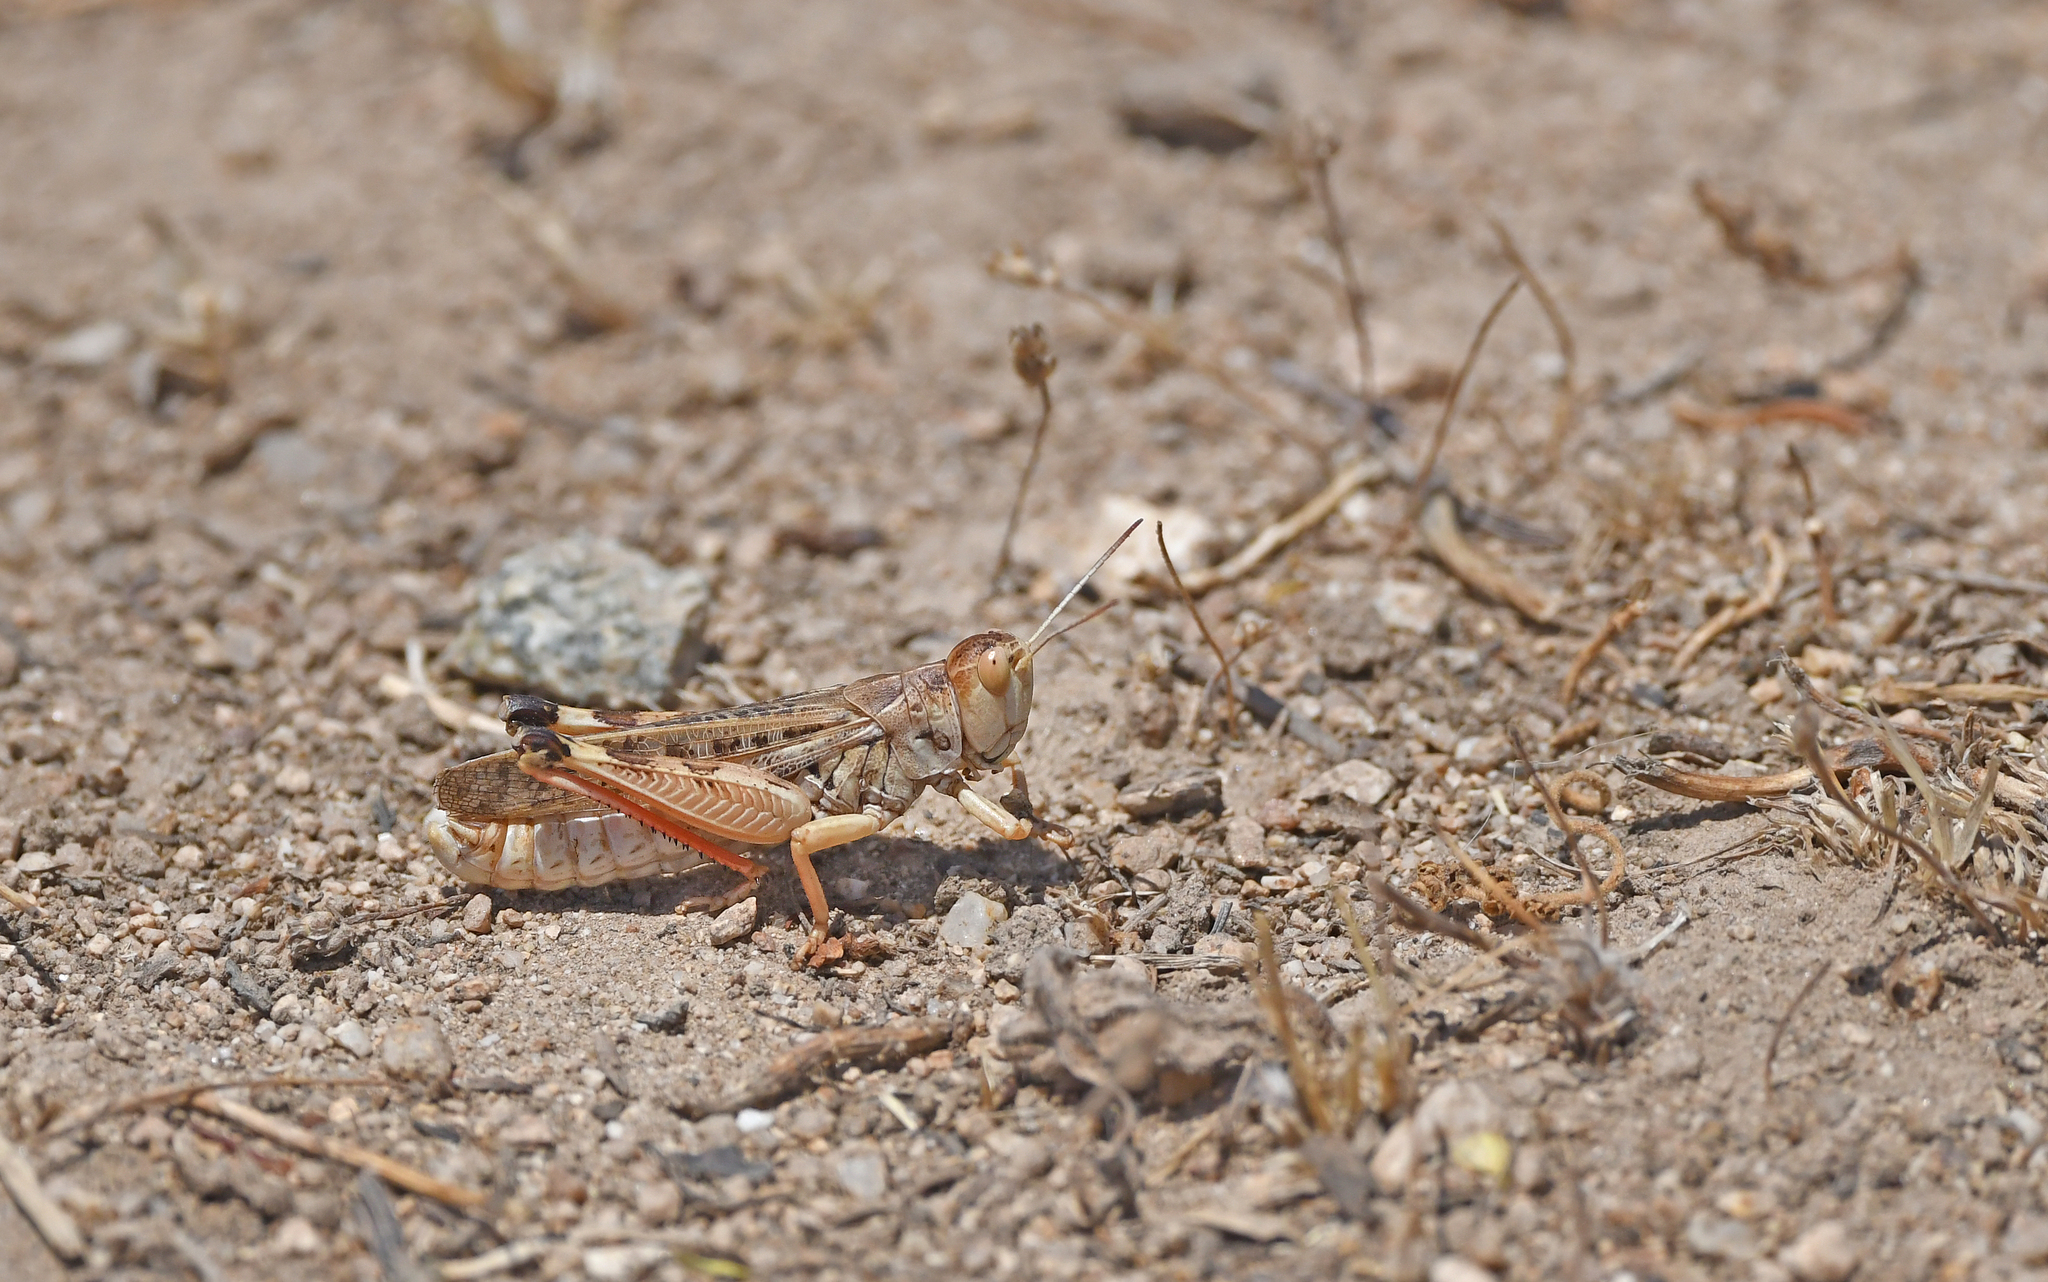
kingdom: Animalia
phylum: Arthropoda
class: Insecta
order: Orthoptera
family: Acrididae
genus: Dociostaurus
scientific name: Dociostaurus maroccanus
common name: Moroccan locust
